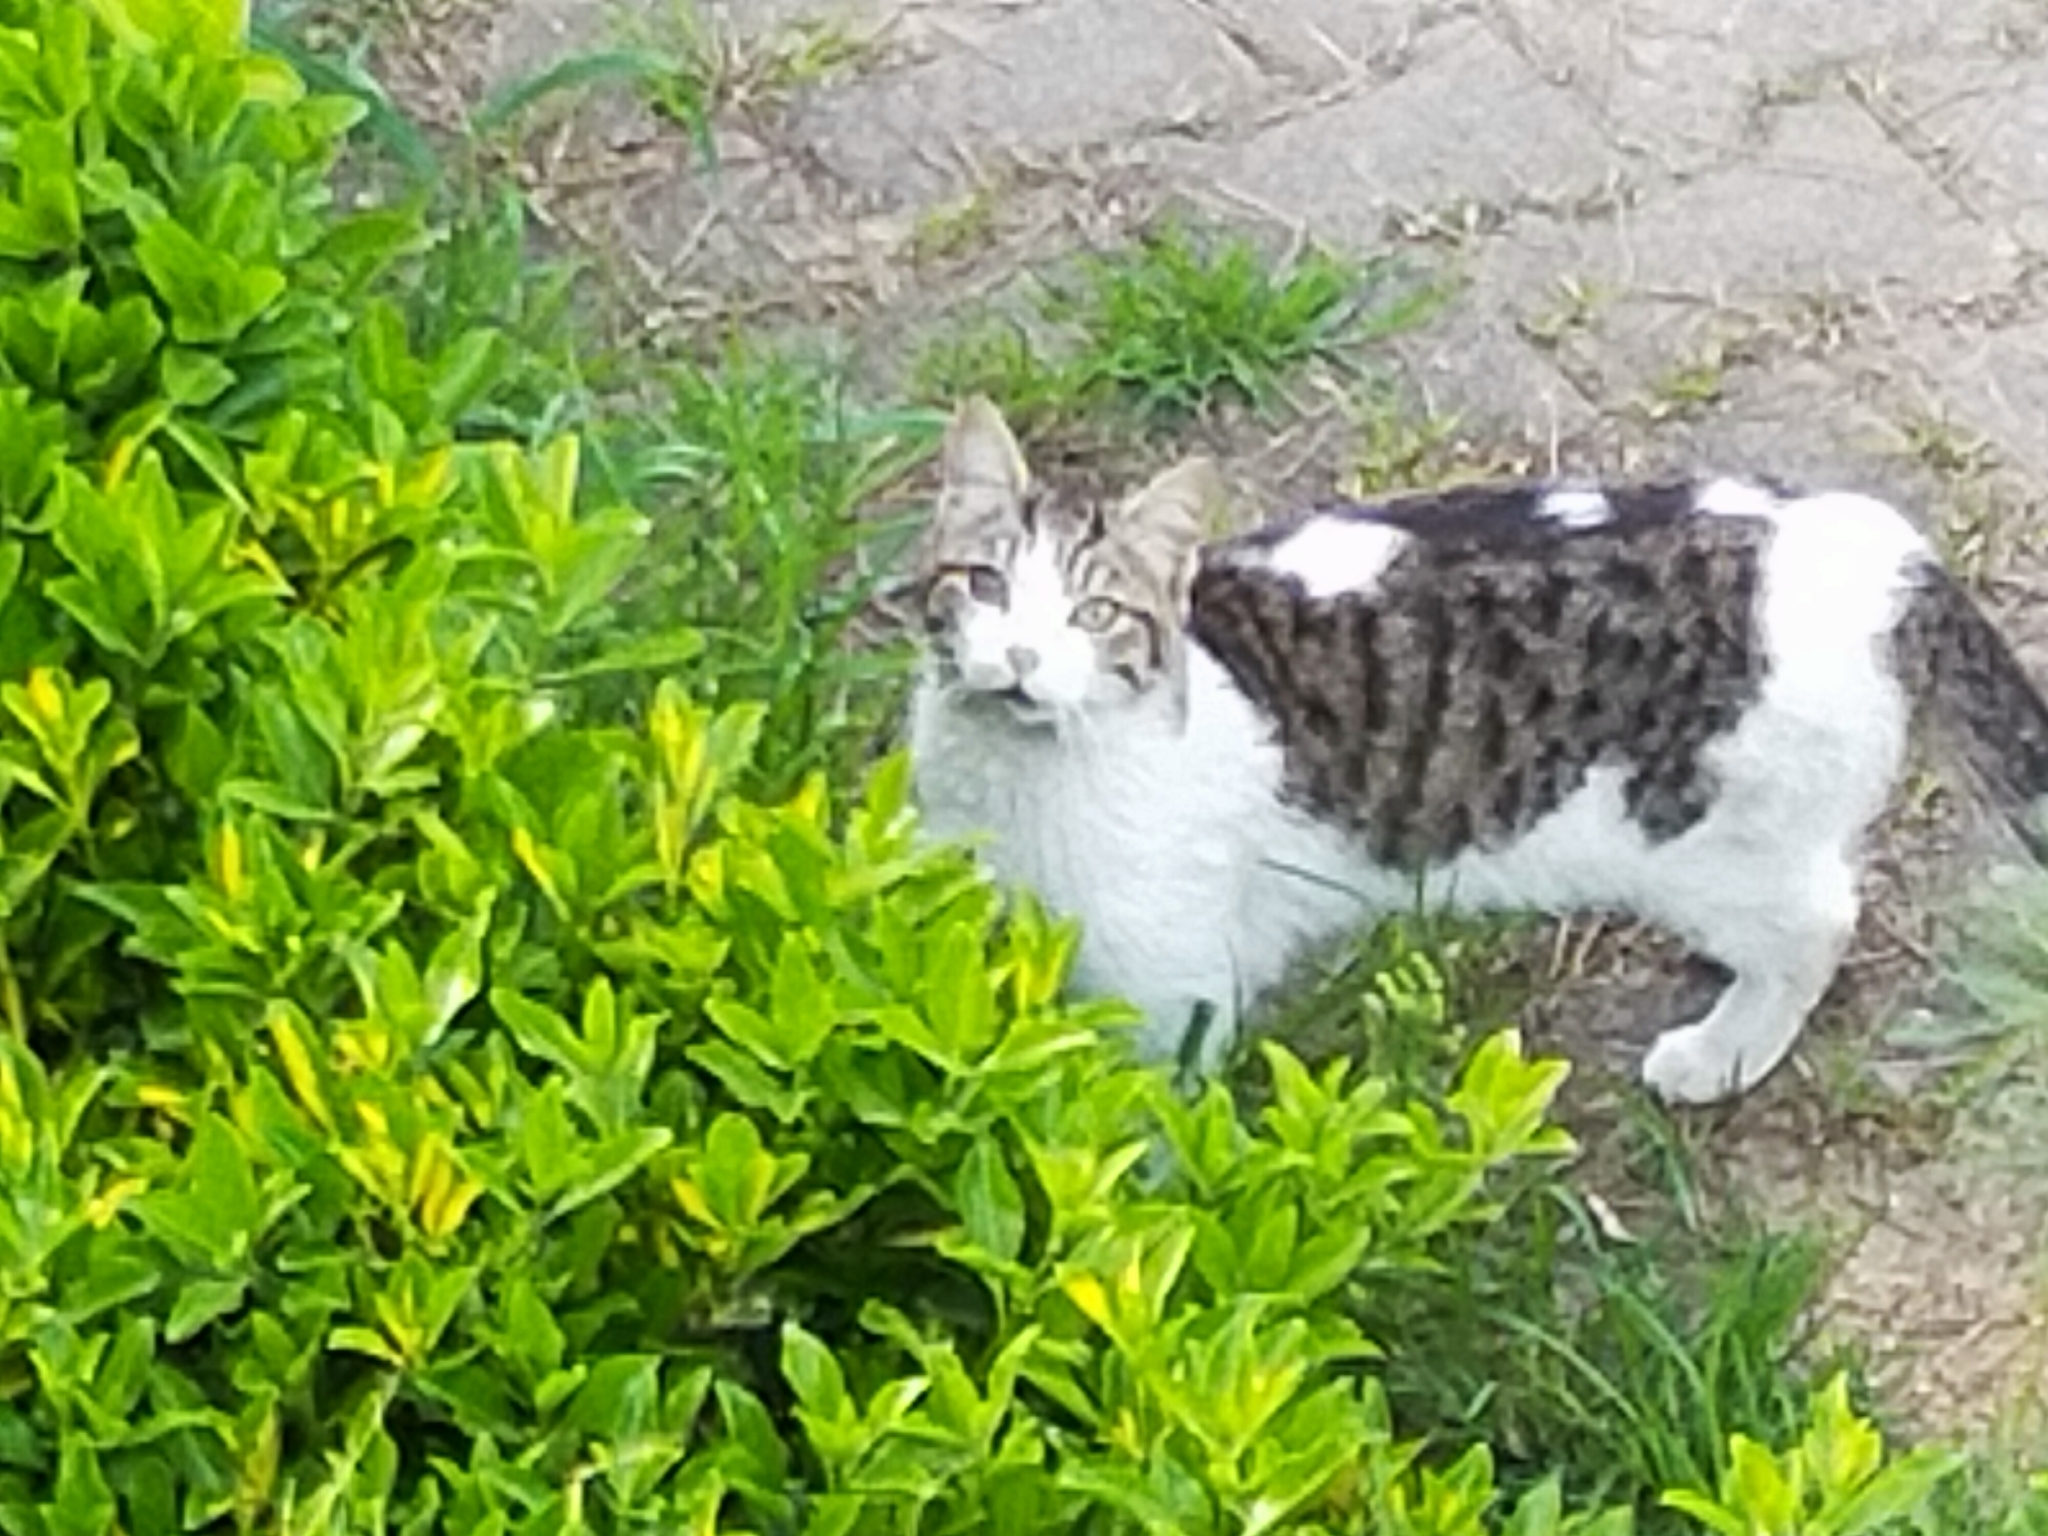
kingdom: Animalia
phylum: Chordata
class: Mammalia
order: Carnivora
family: Felidae
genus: Felis
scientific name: Felis catus
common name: Domestic cat
